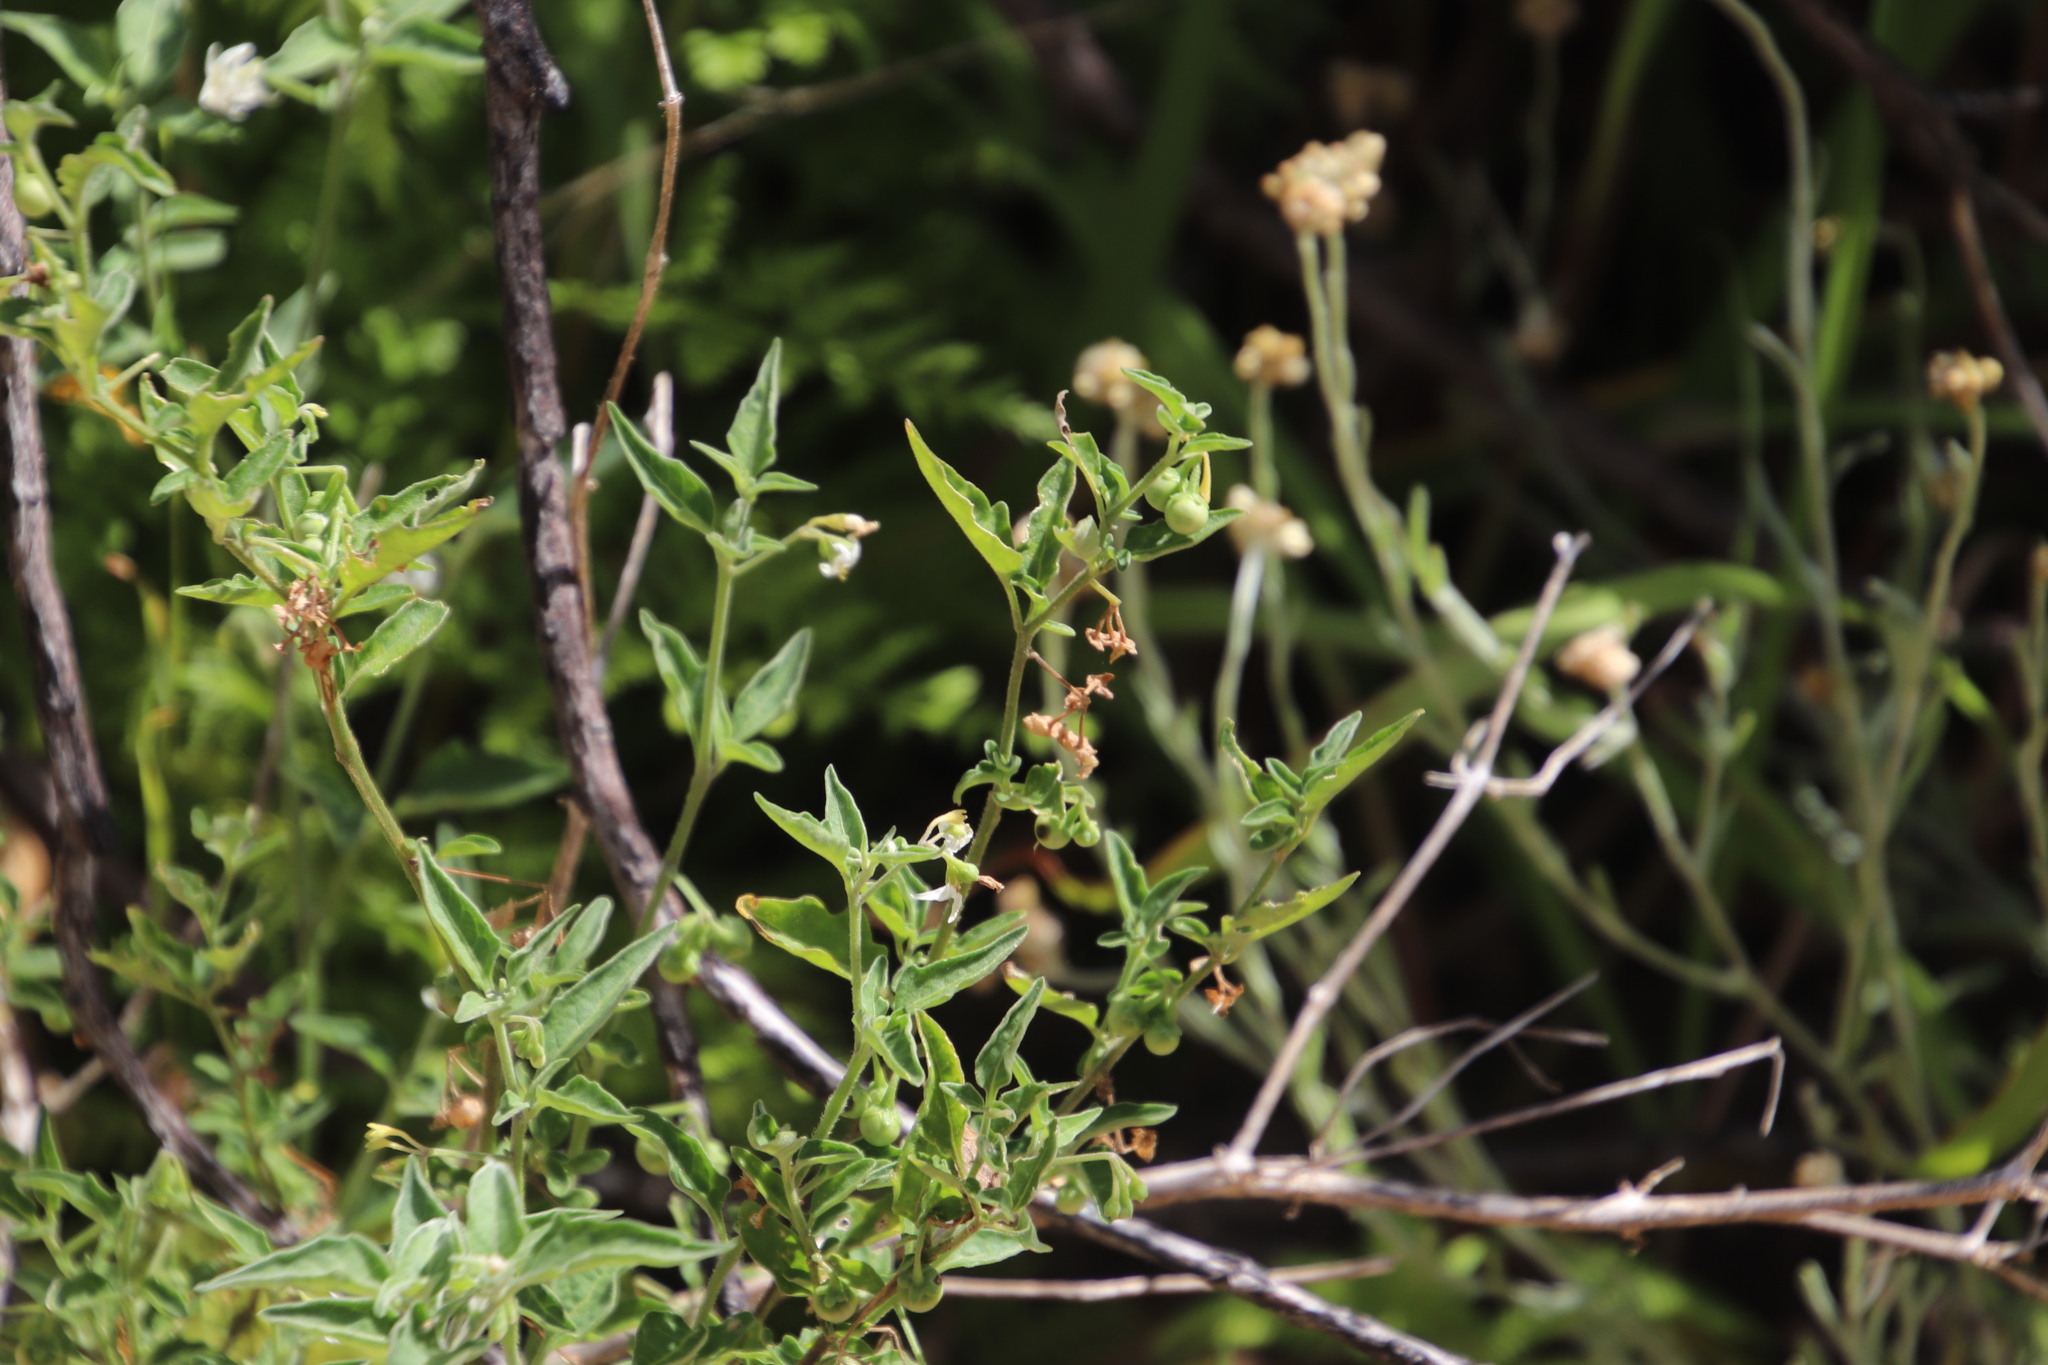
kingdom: Plantae
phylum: Tracheophyta
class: Magnoliopsida
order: Solanales
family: Solanaceae
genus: Solanum
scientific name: Solanum chenopodioides
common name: Tall nightshade
